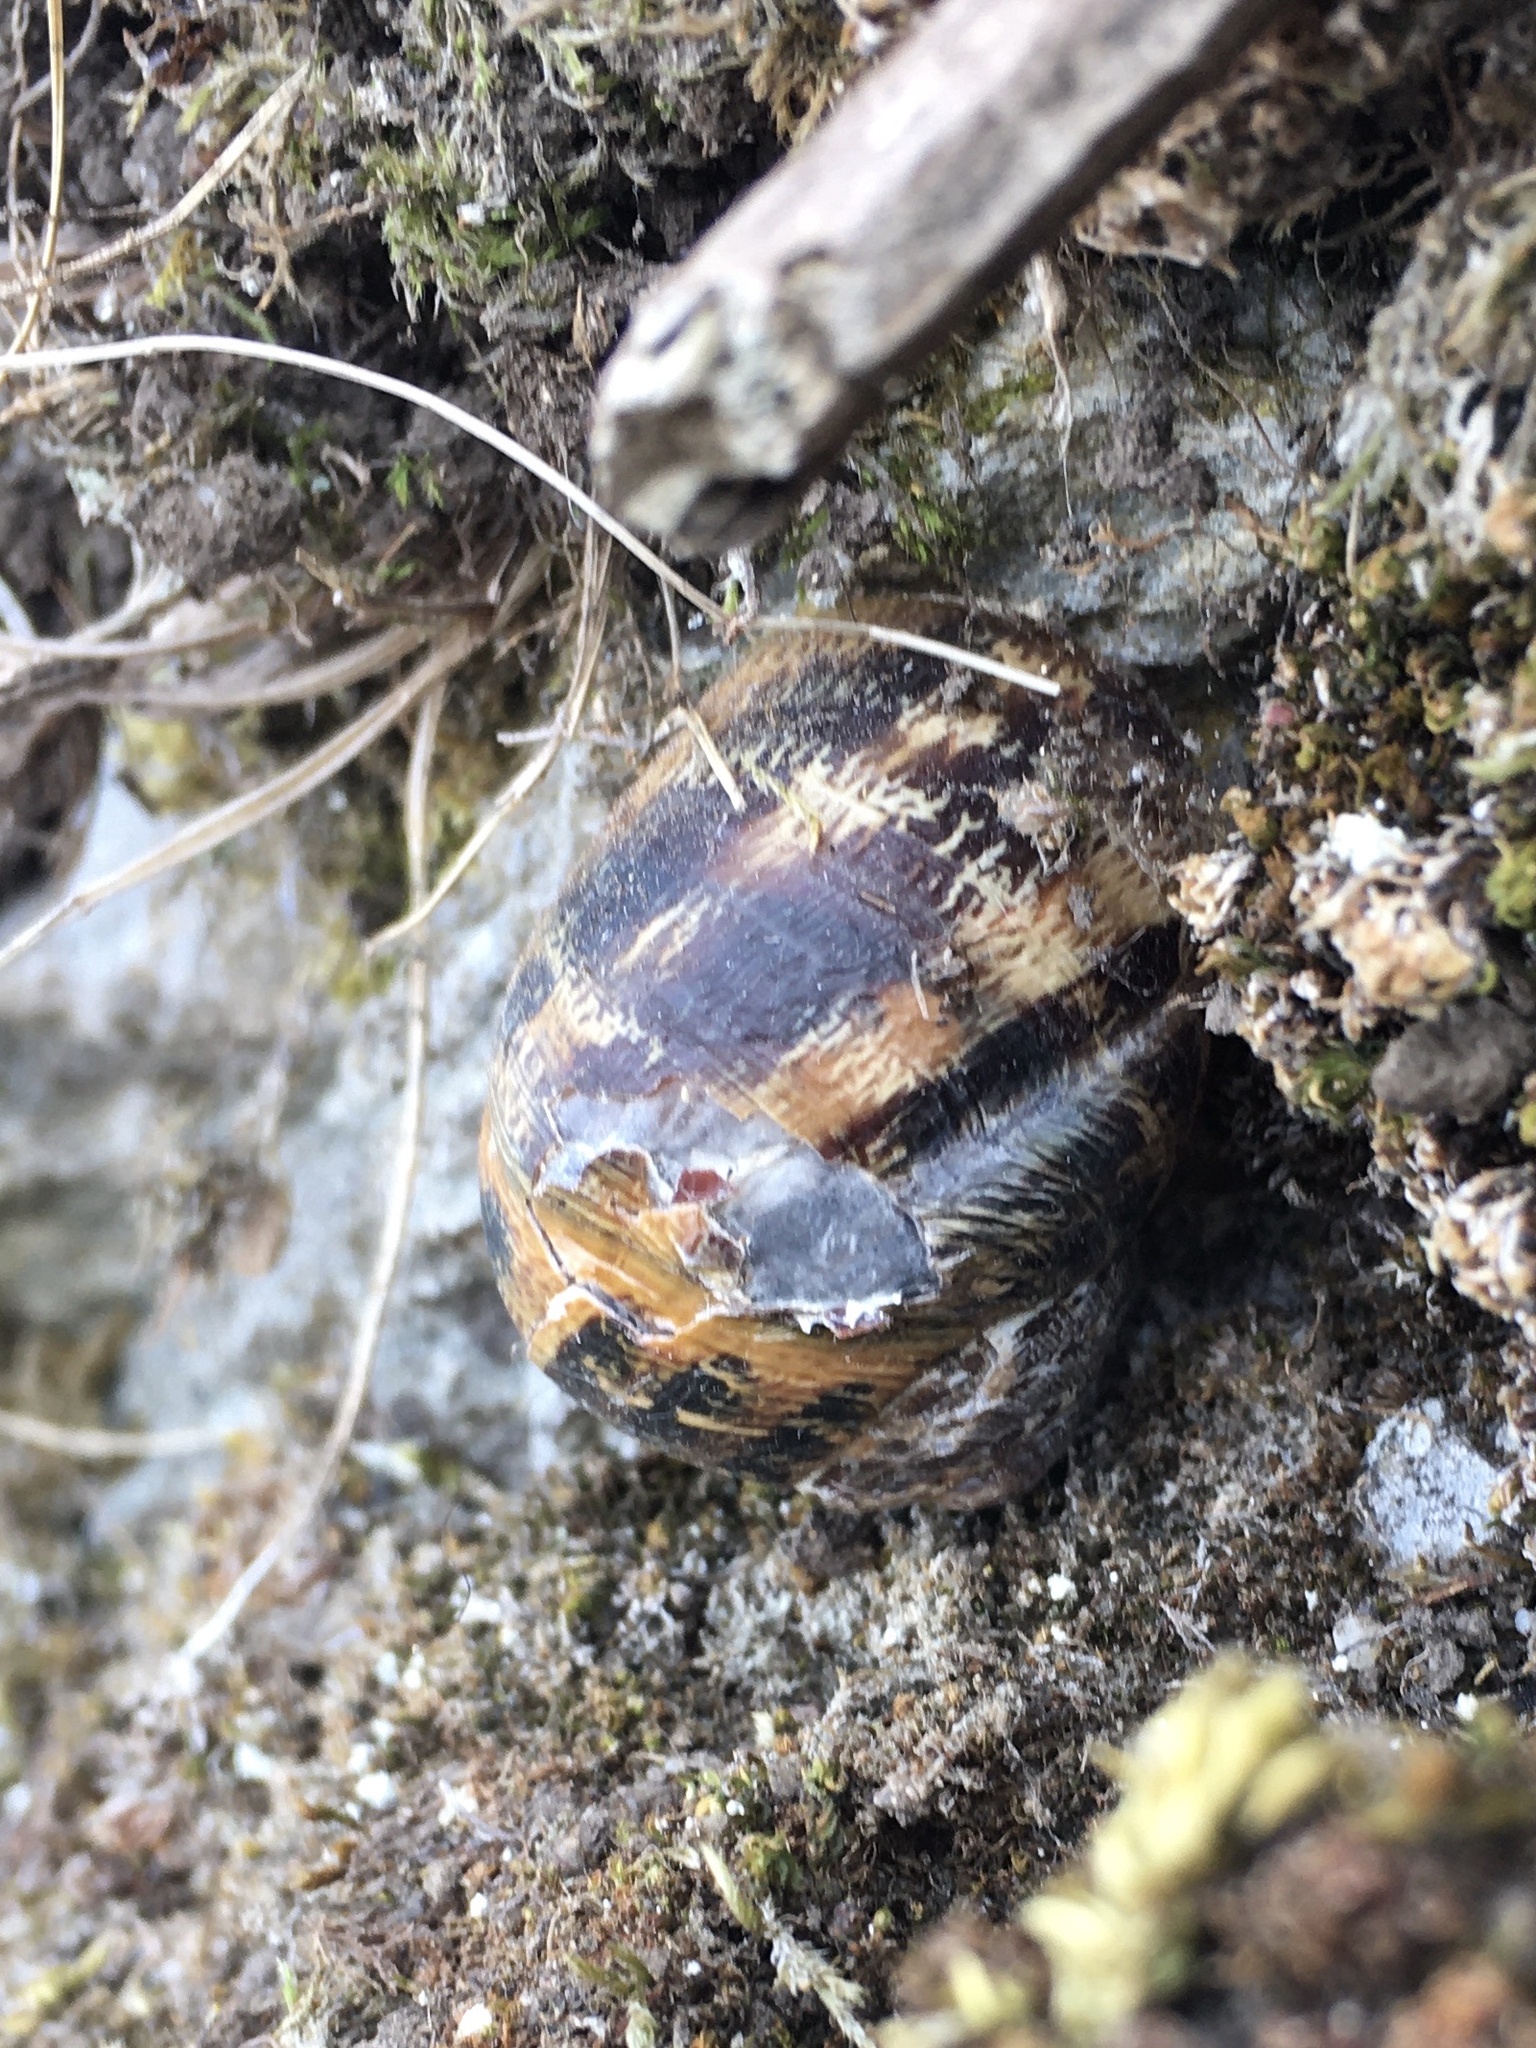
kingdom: Animalia
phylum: Mollusca
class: Gastropoda
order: Stylommatophora
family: Helicidae
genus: Cornu
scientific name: Cornu aspersum
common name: Brown garden snail
